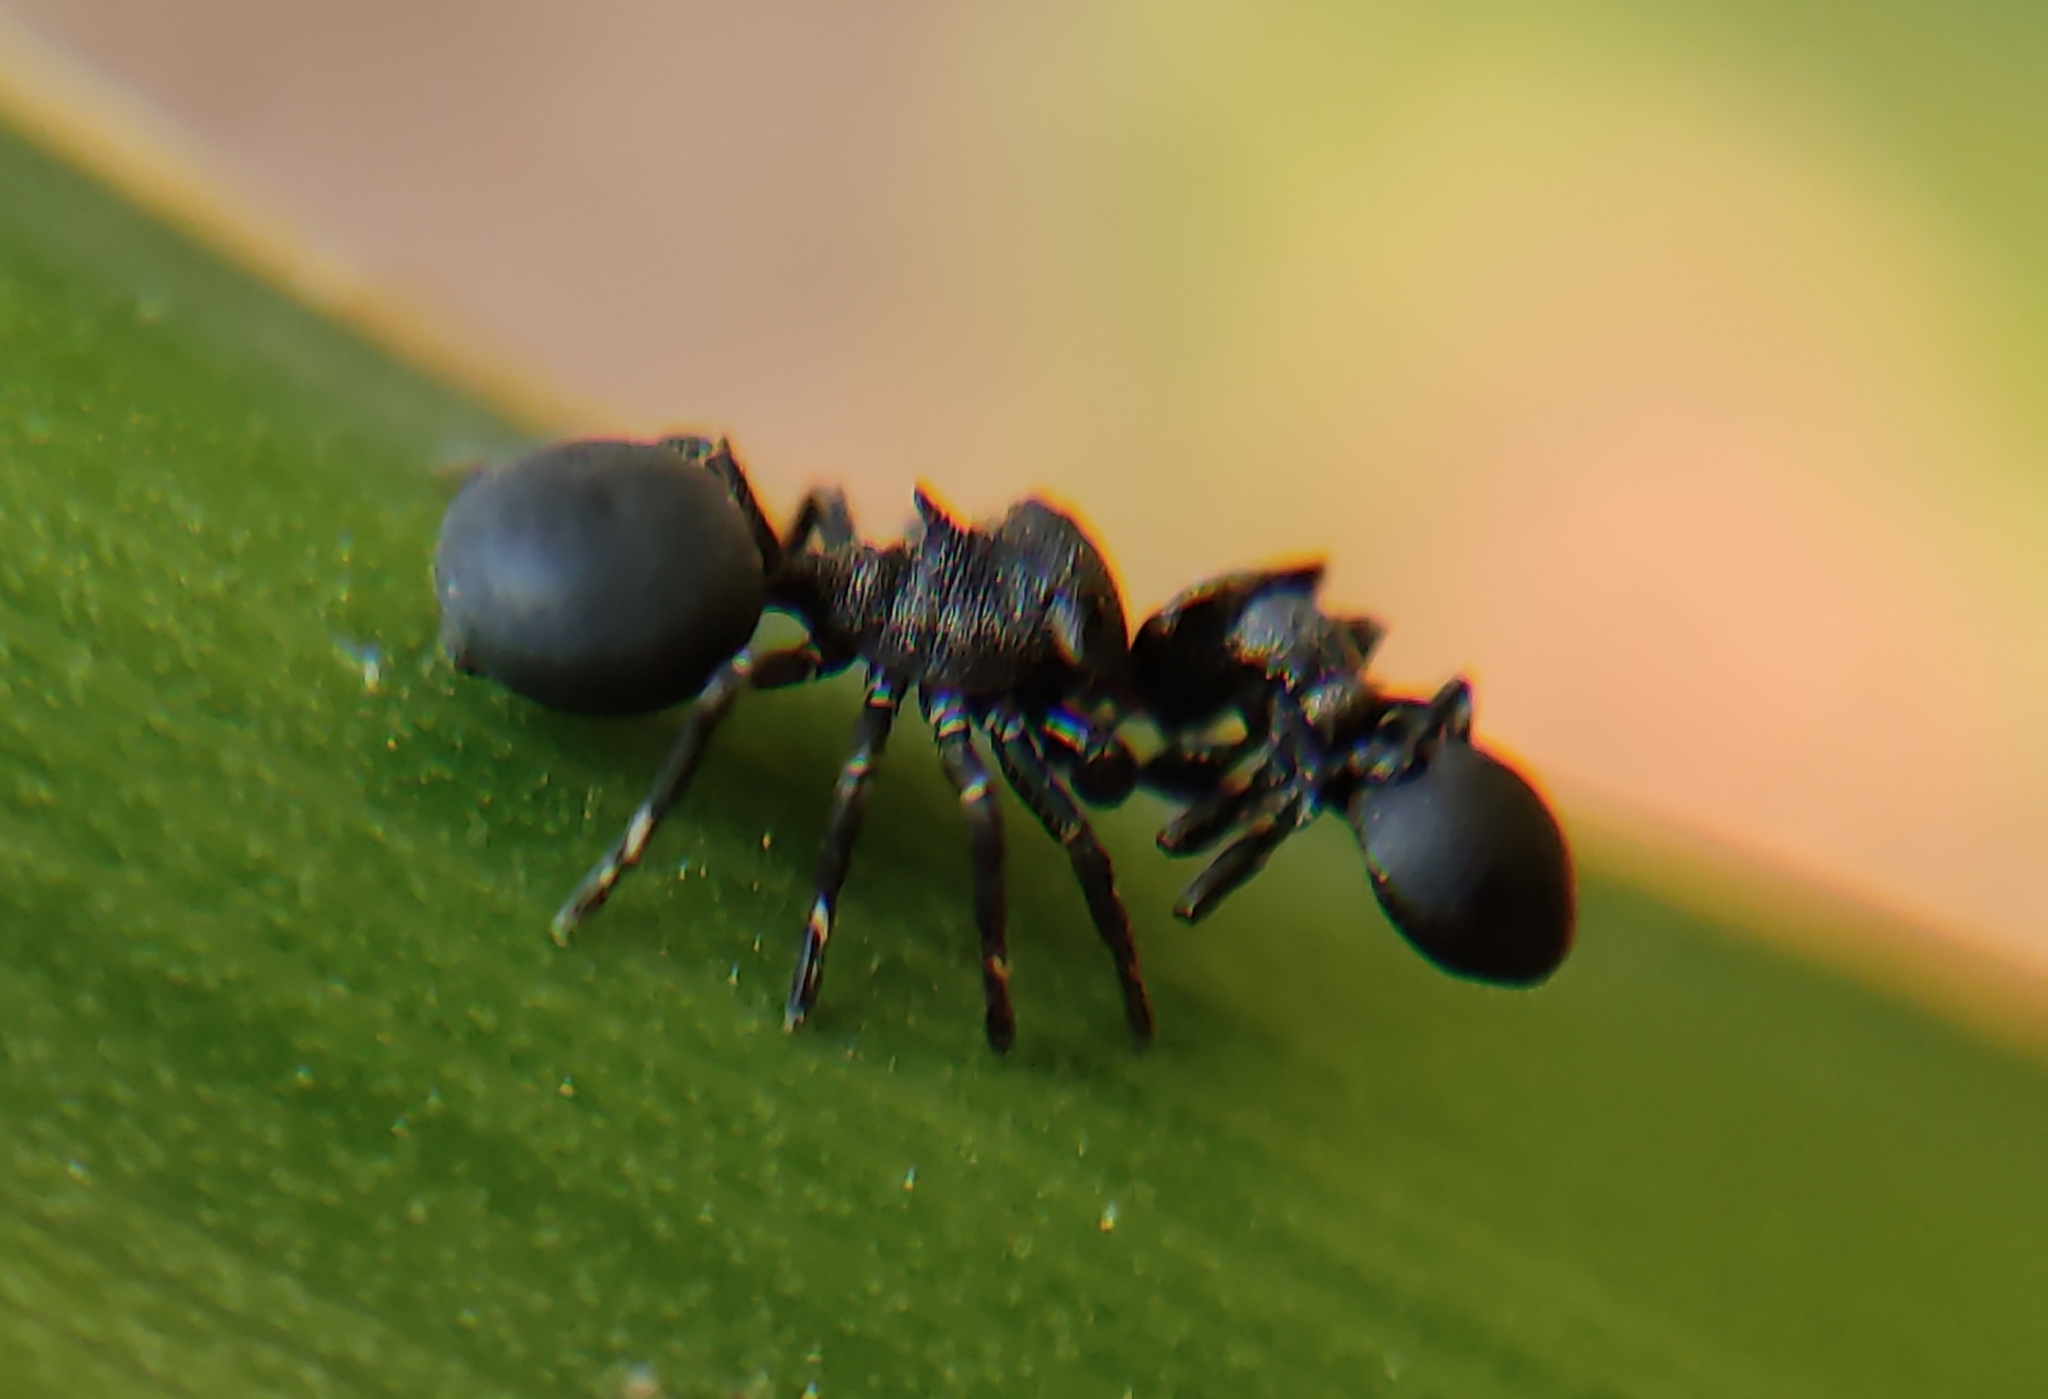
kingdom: Animalia
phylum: Arthropoda
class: Arachnida
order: Araneae
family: Thomisidae
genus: Aphantochilus
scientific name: Aphantochilus inermipes
